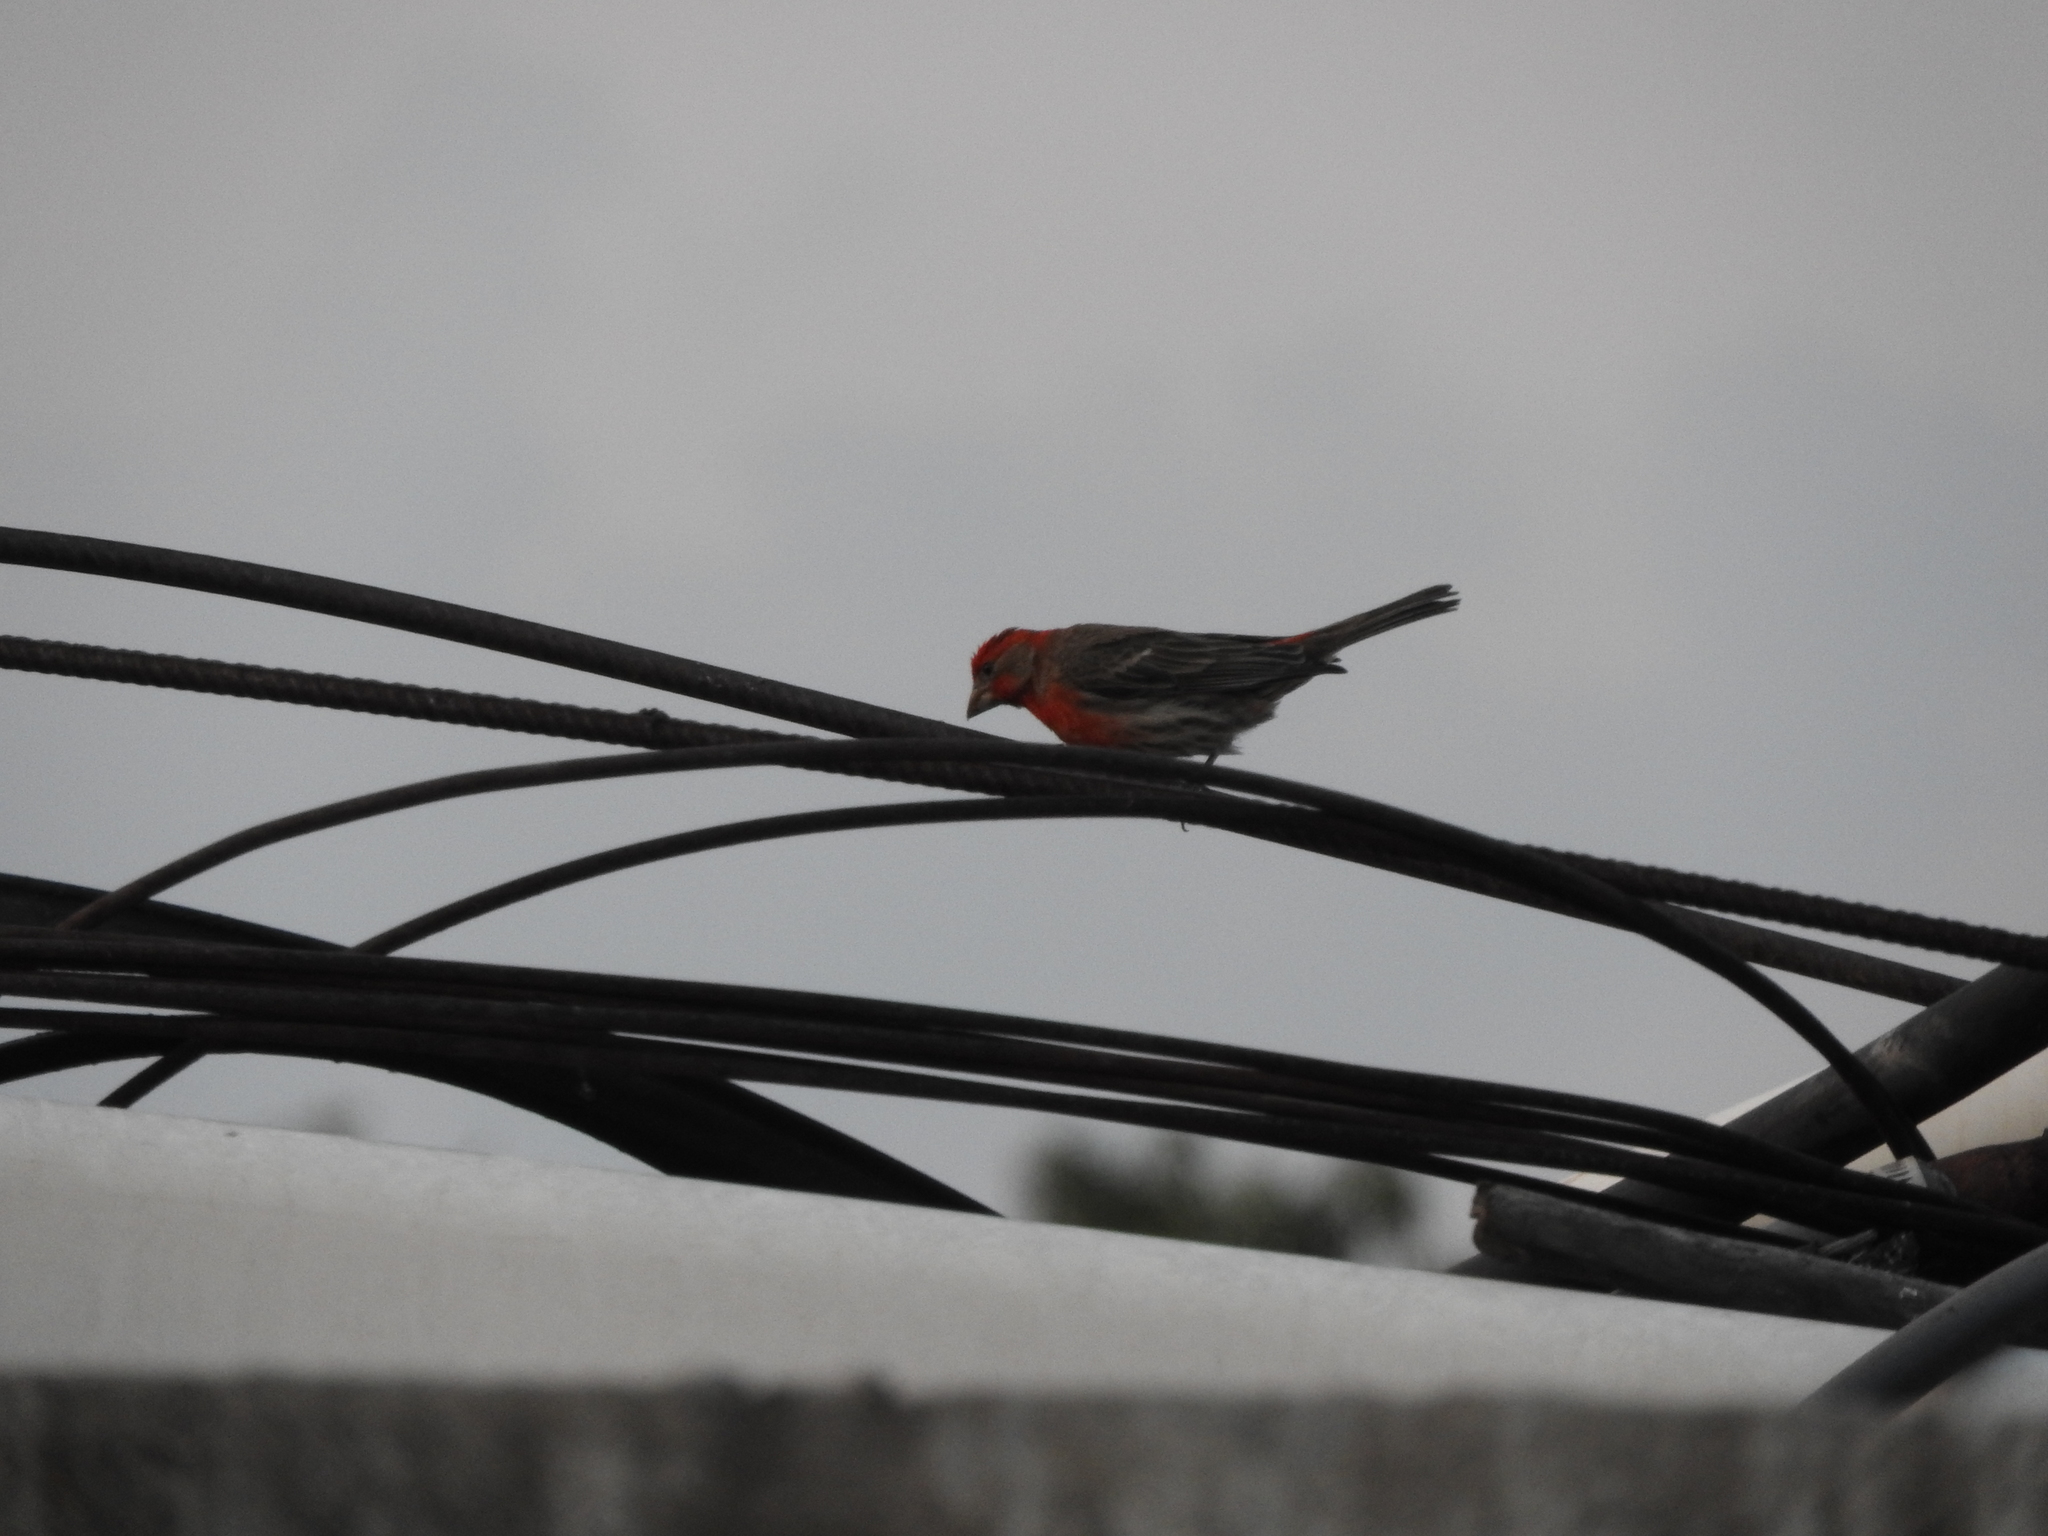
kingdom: Animalia
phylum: Chordata
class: Aves
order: Passeriformes
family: Fringillidae
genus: Haemorhous
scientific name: Haemorhous mexicanus
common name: House finch
